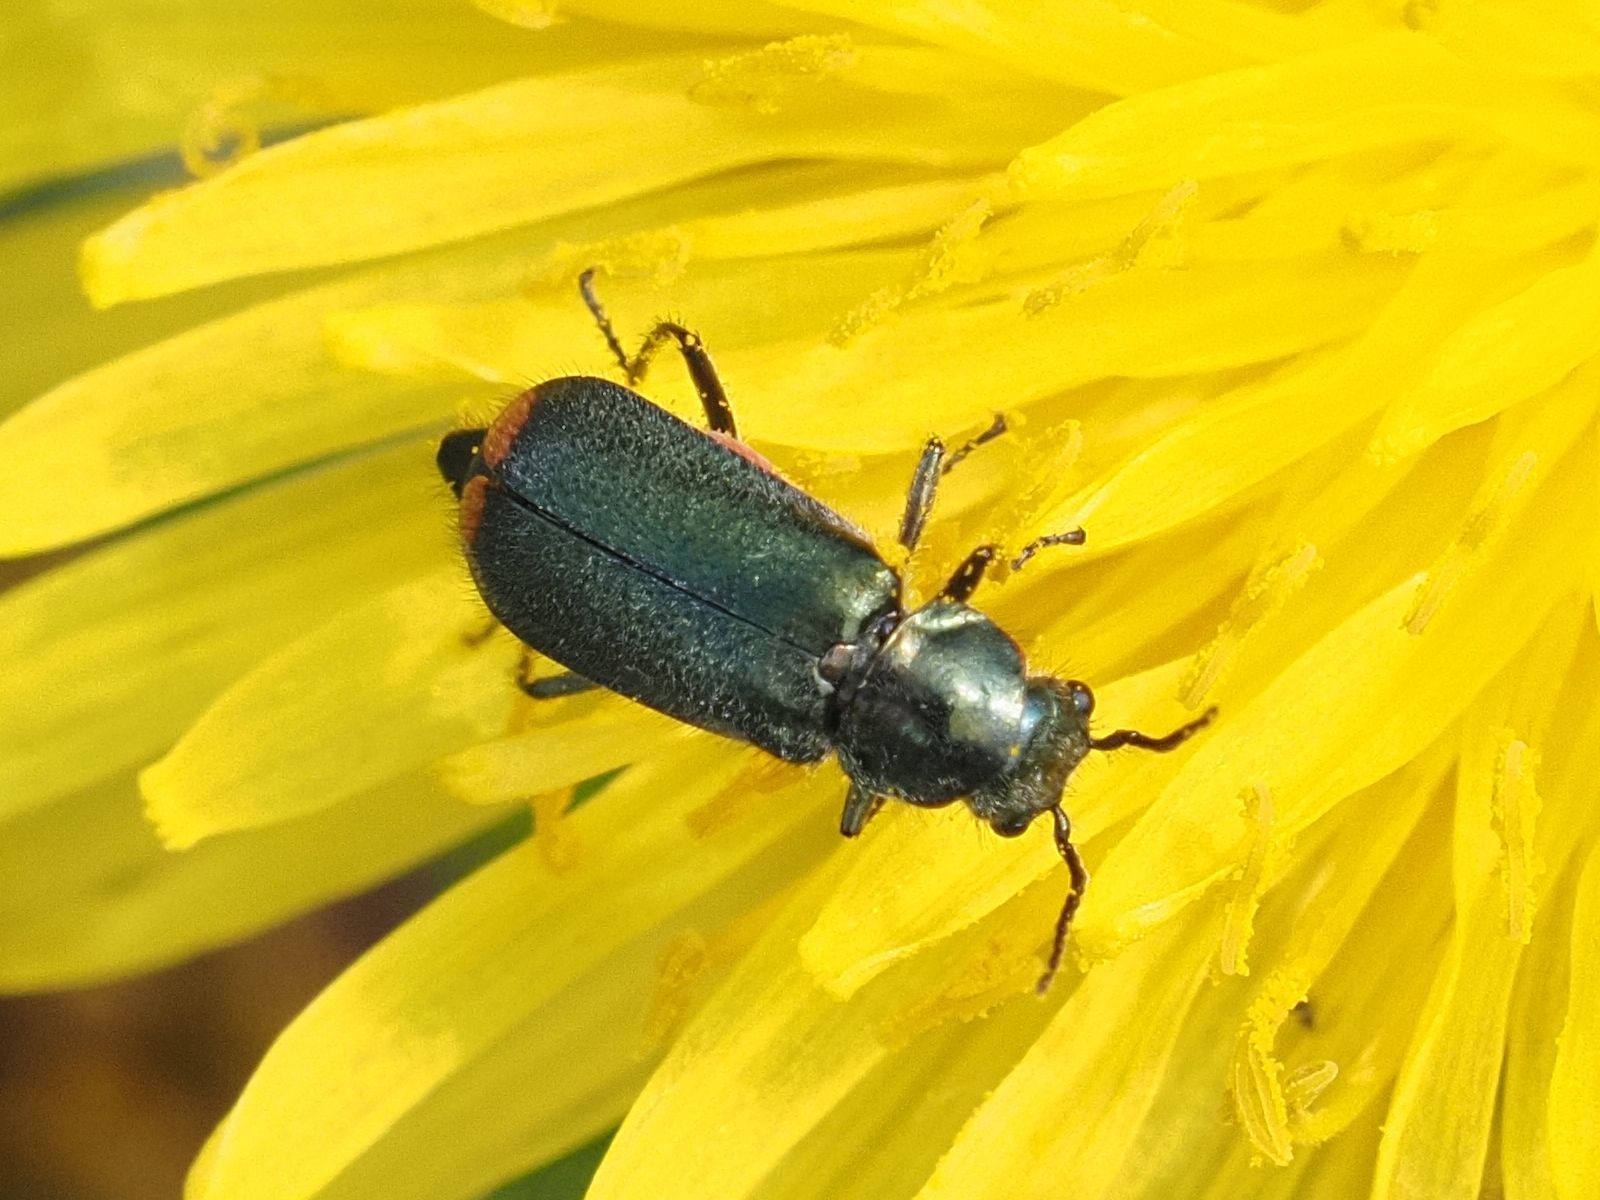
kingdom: Animalia
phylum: Arthropoda
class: Insecta
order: Coleoptera
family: Melyridae
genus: Malachius
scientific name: Malachius bipustulatus
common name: Malachite beetle
